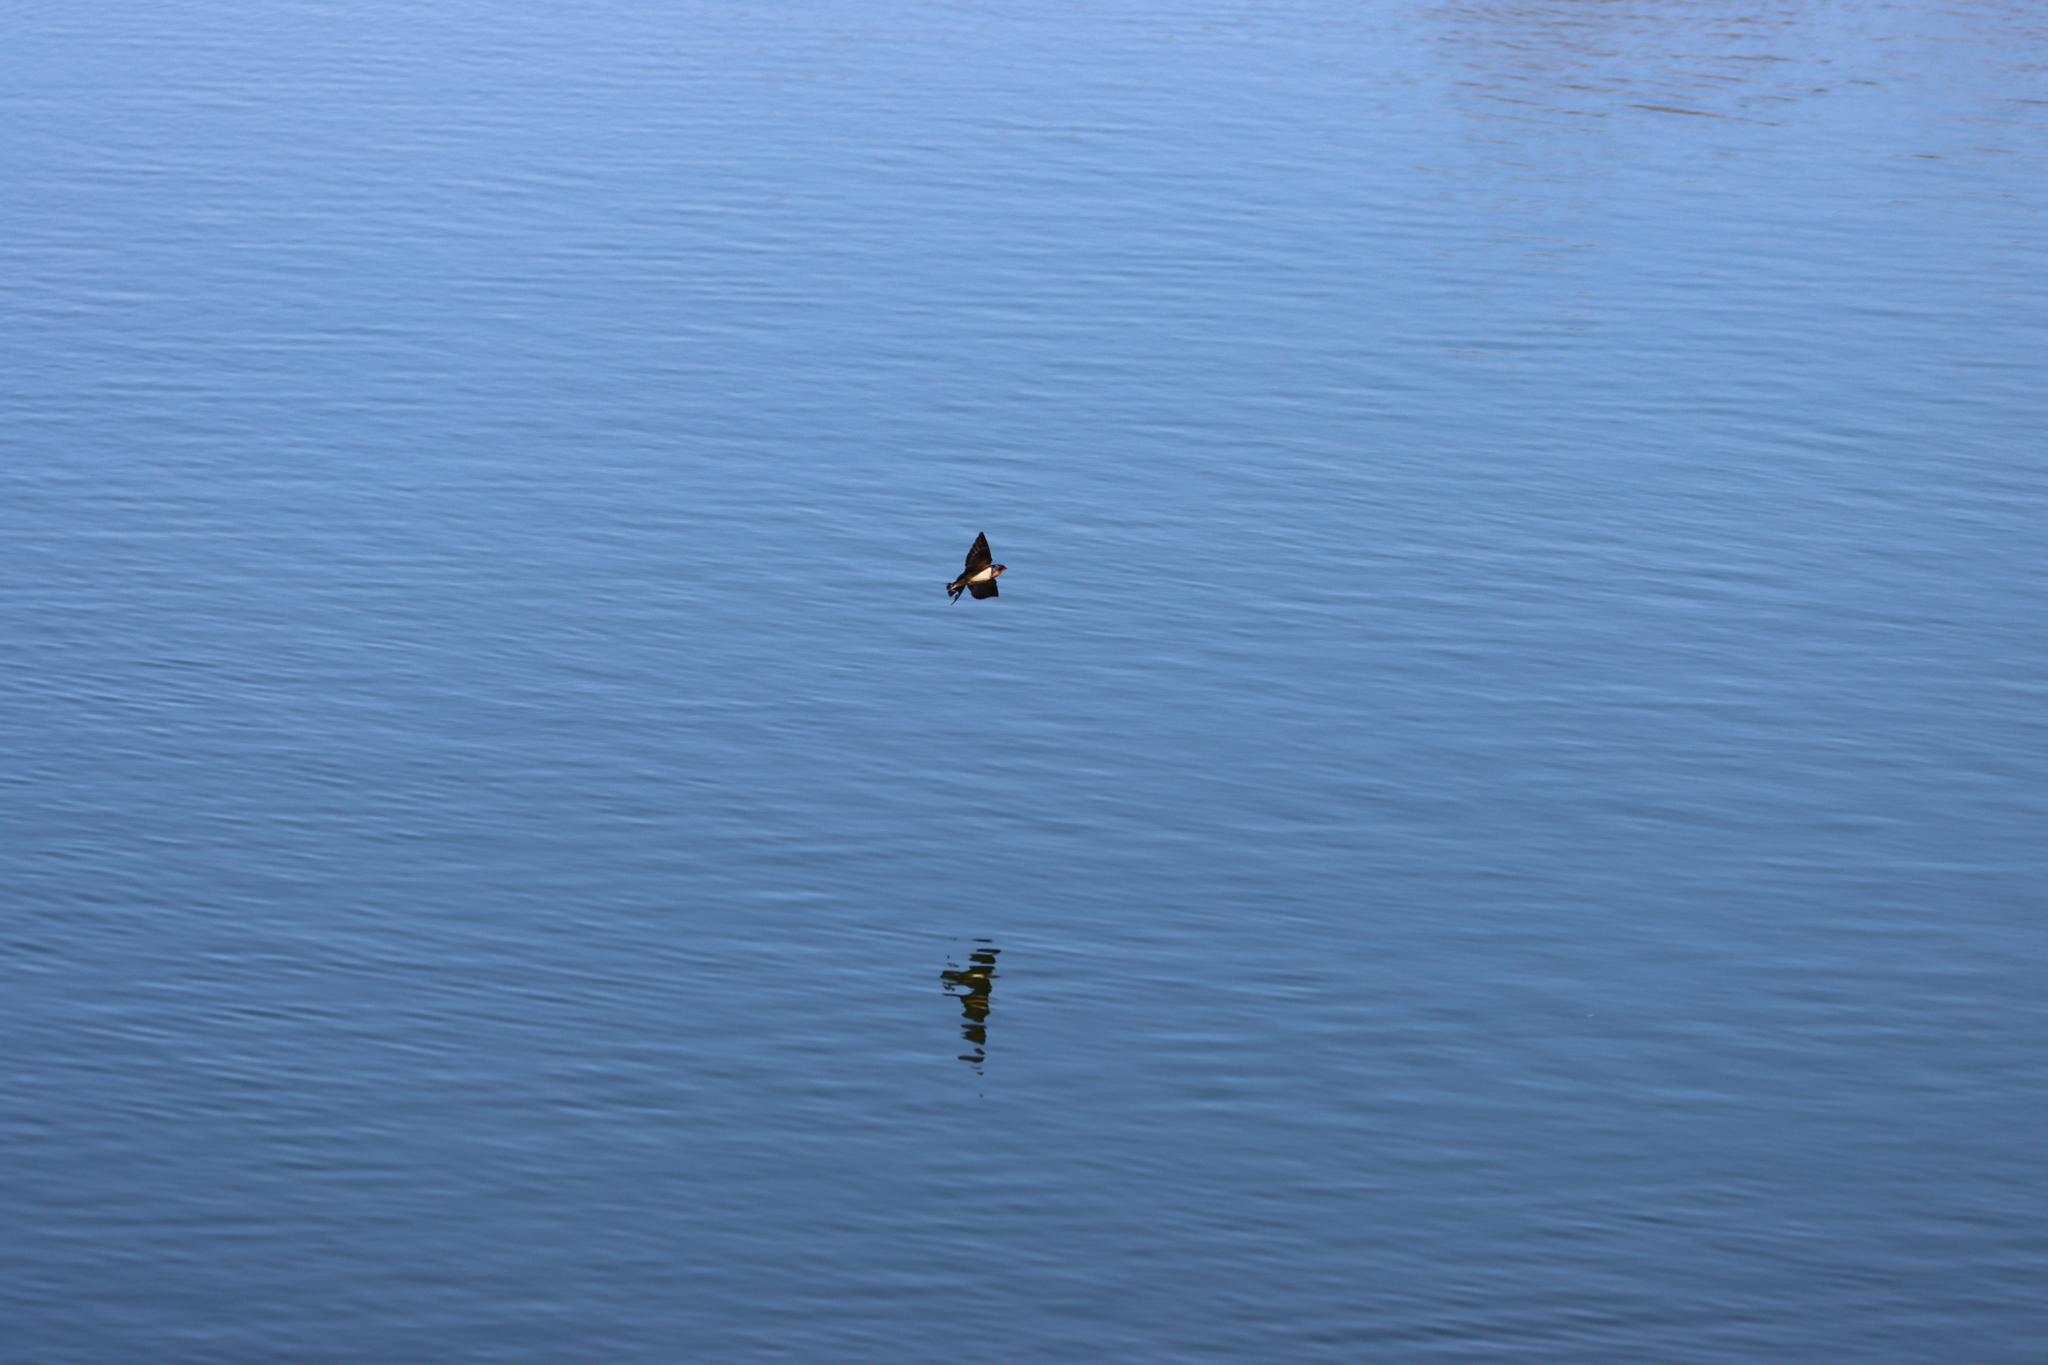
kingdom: Animalia
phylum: Chordata
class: Aves
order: Passeriformes
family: Hirundinidae
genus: Hirundo
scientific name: Hirundo rustica
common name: Barn swallow
